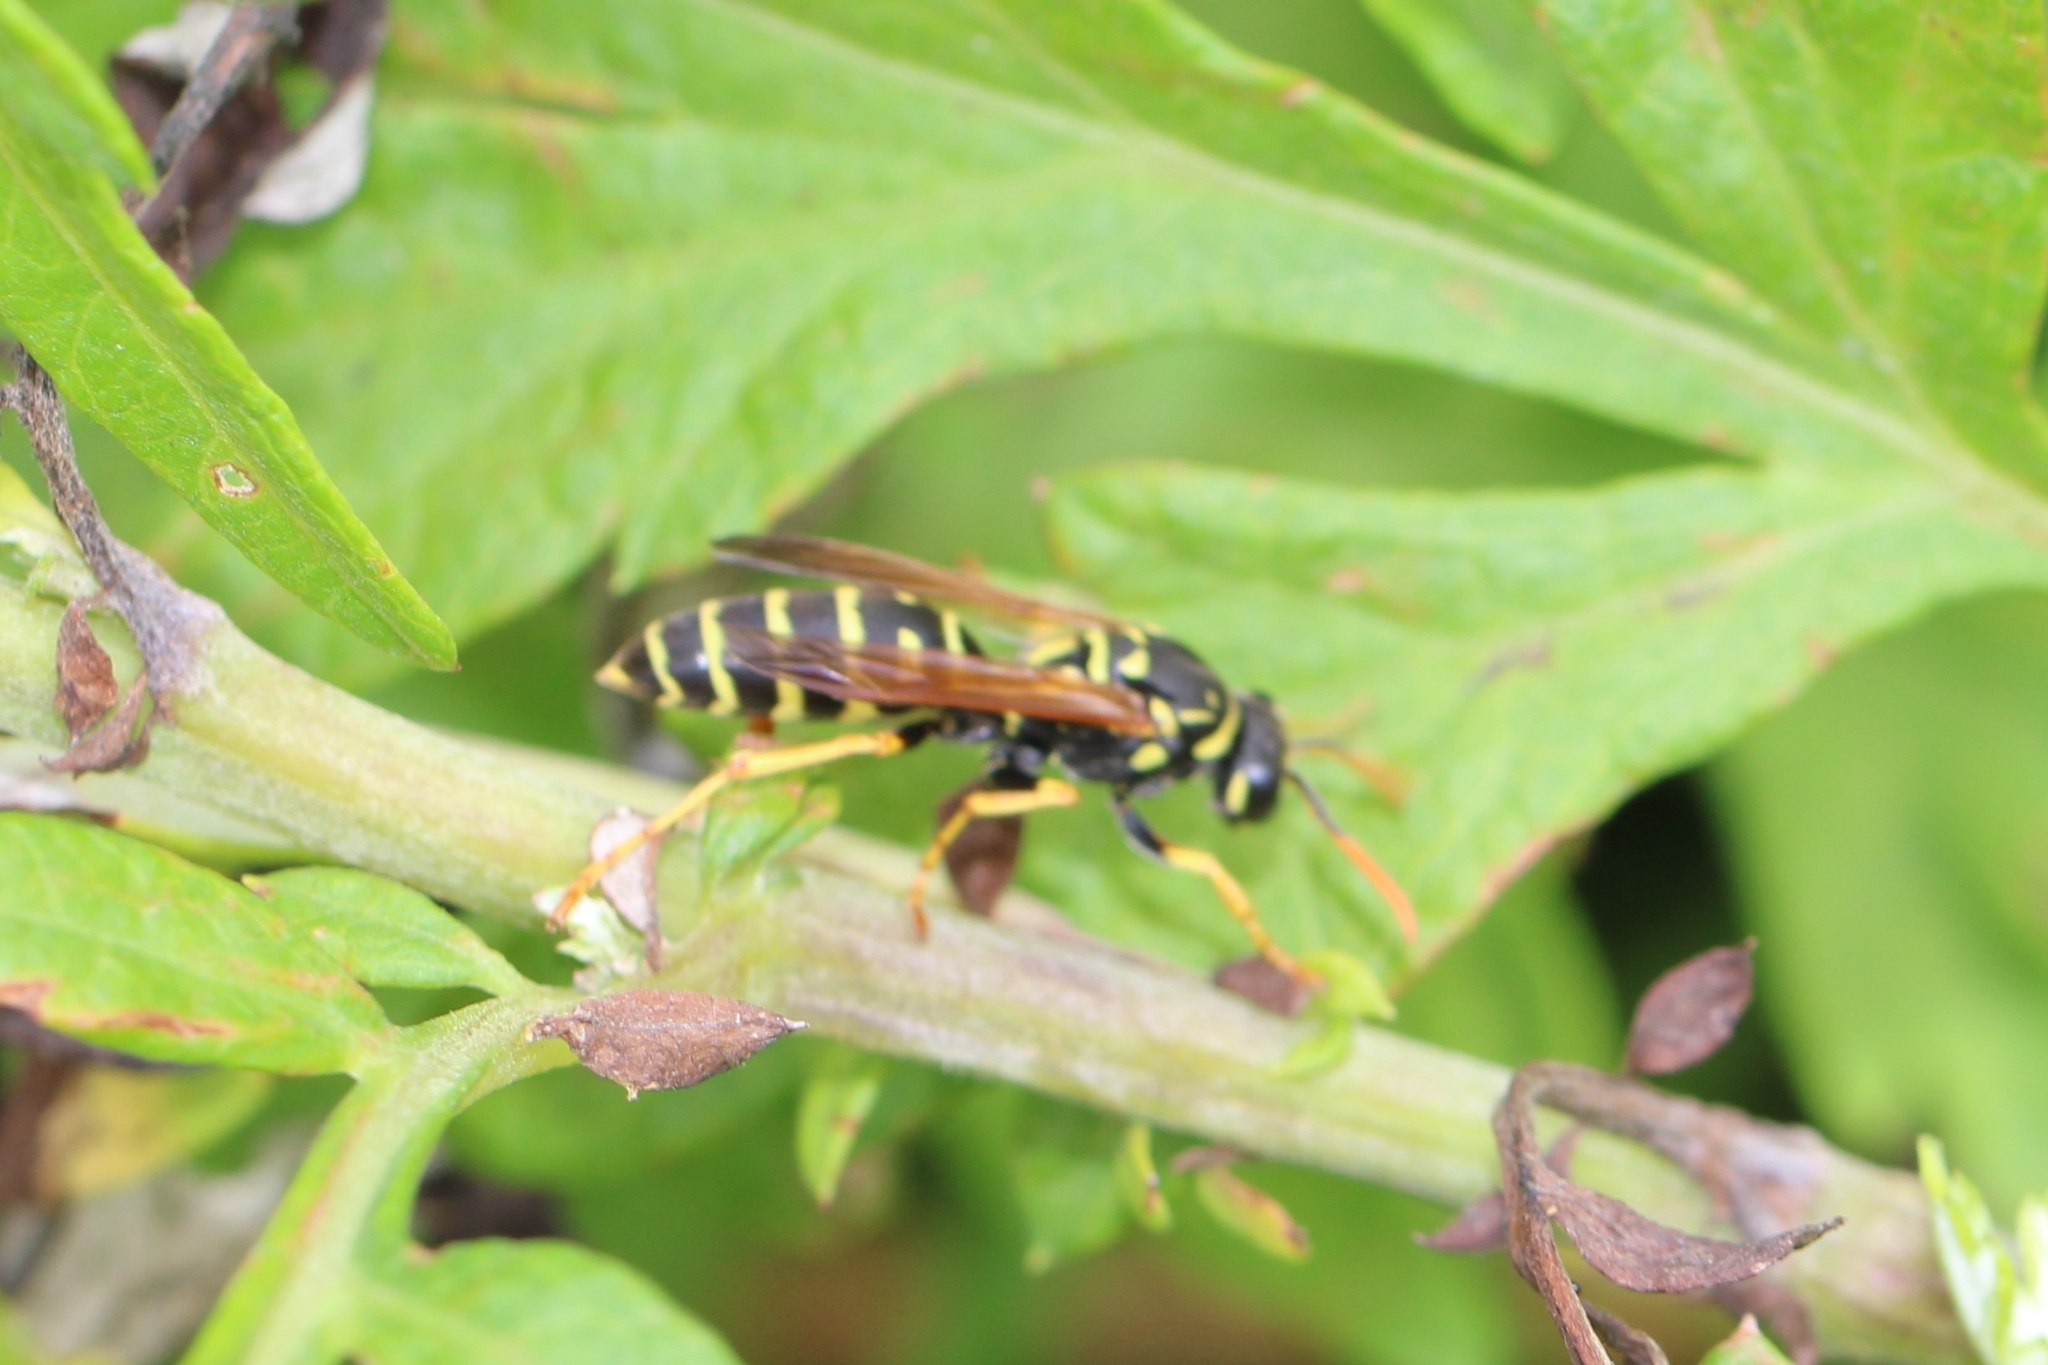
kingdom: Animalia
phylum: Arthropoda
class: Insecta
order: Hymenoptera
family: Eumenidae
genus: Polistes
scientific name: Polistes dominula
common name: Paper wasp
